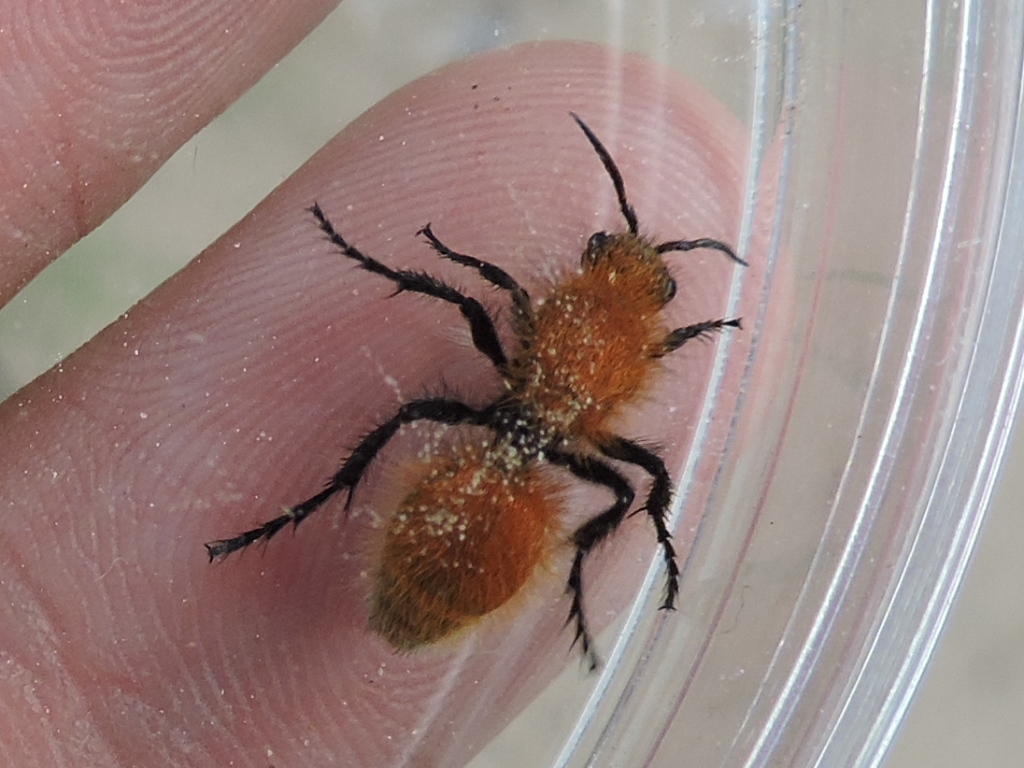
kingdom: Animalia
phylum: Arthropoda
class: Insecta
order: Hymenoptera
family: Mutillidae
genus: Dasymutilla
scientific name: Dasymutilla
